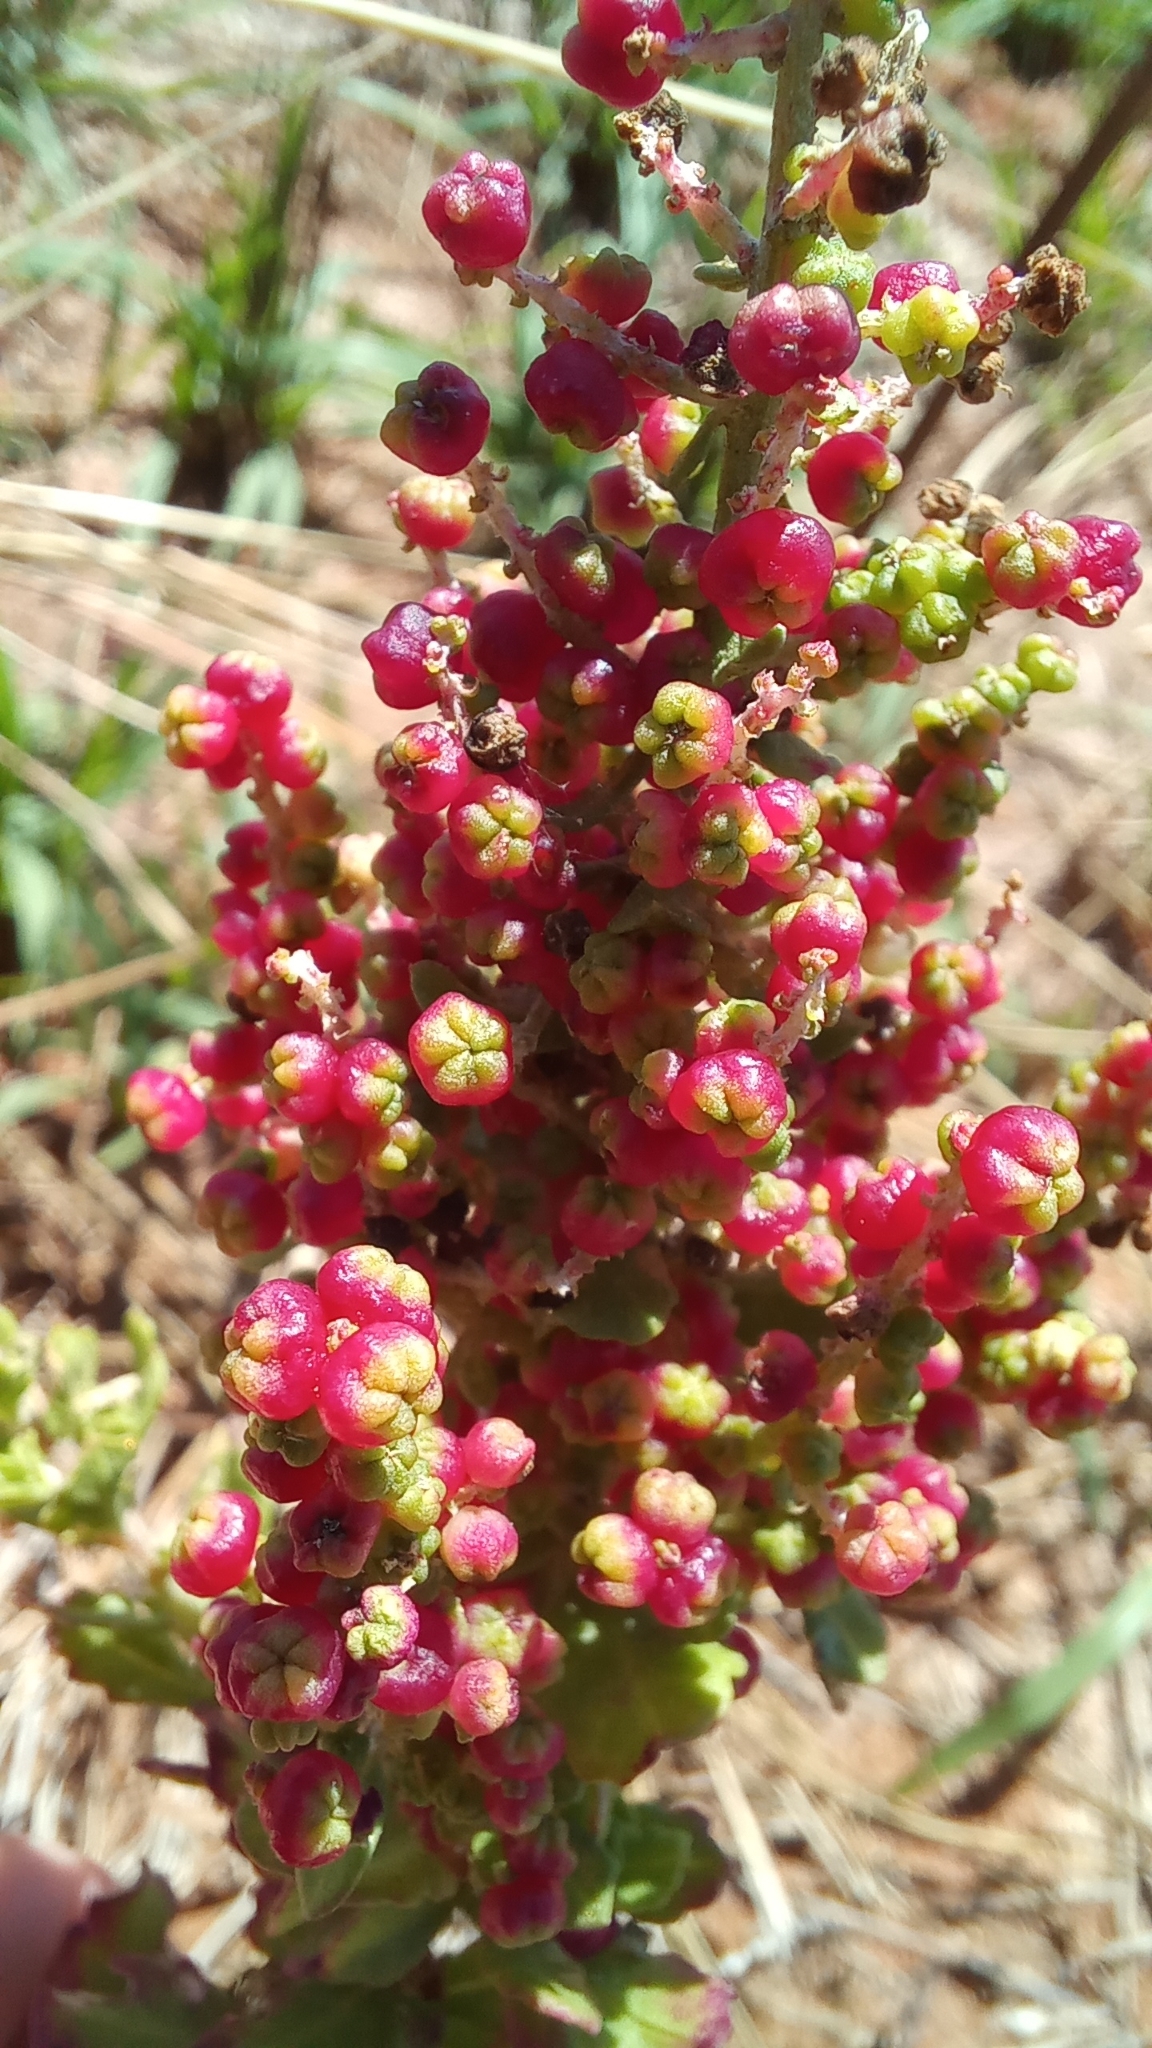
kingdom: Plantae
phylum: Tracheophyta
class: Magnoliopsida
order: Caryophyllales
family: Amaranthaceae
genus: Dysphania
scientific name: Dysphania retusa
